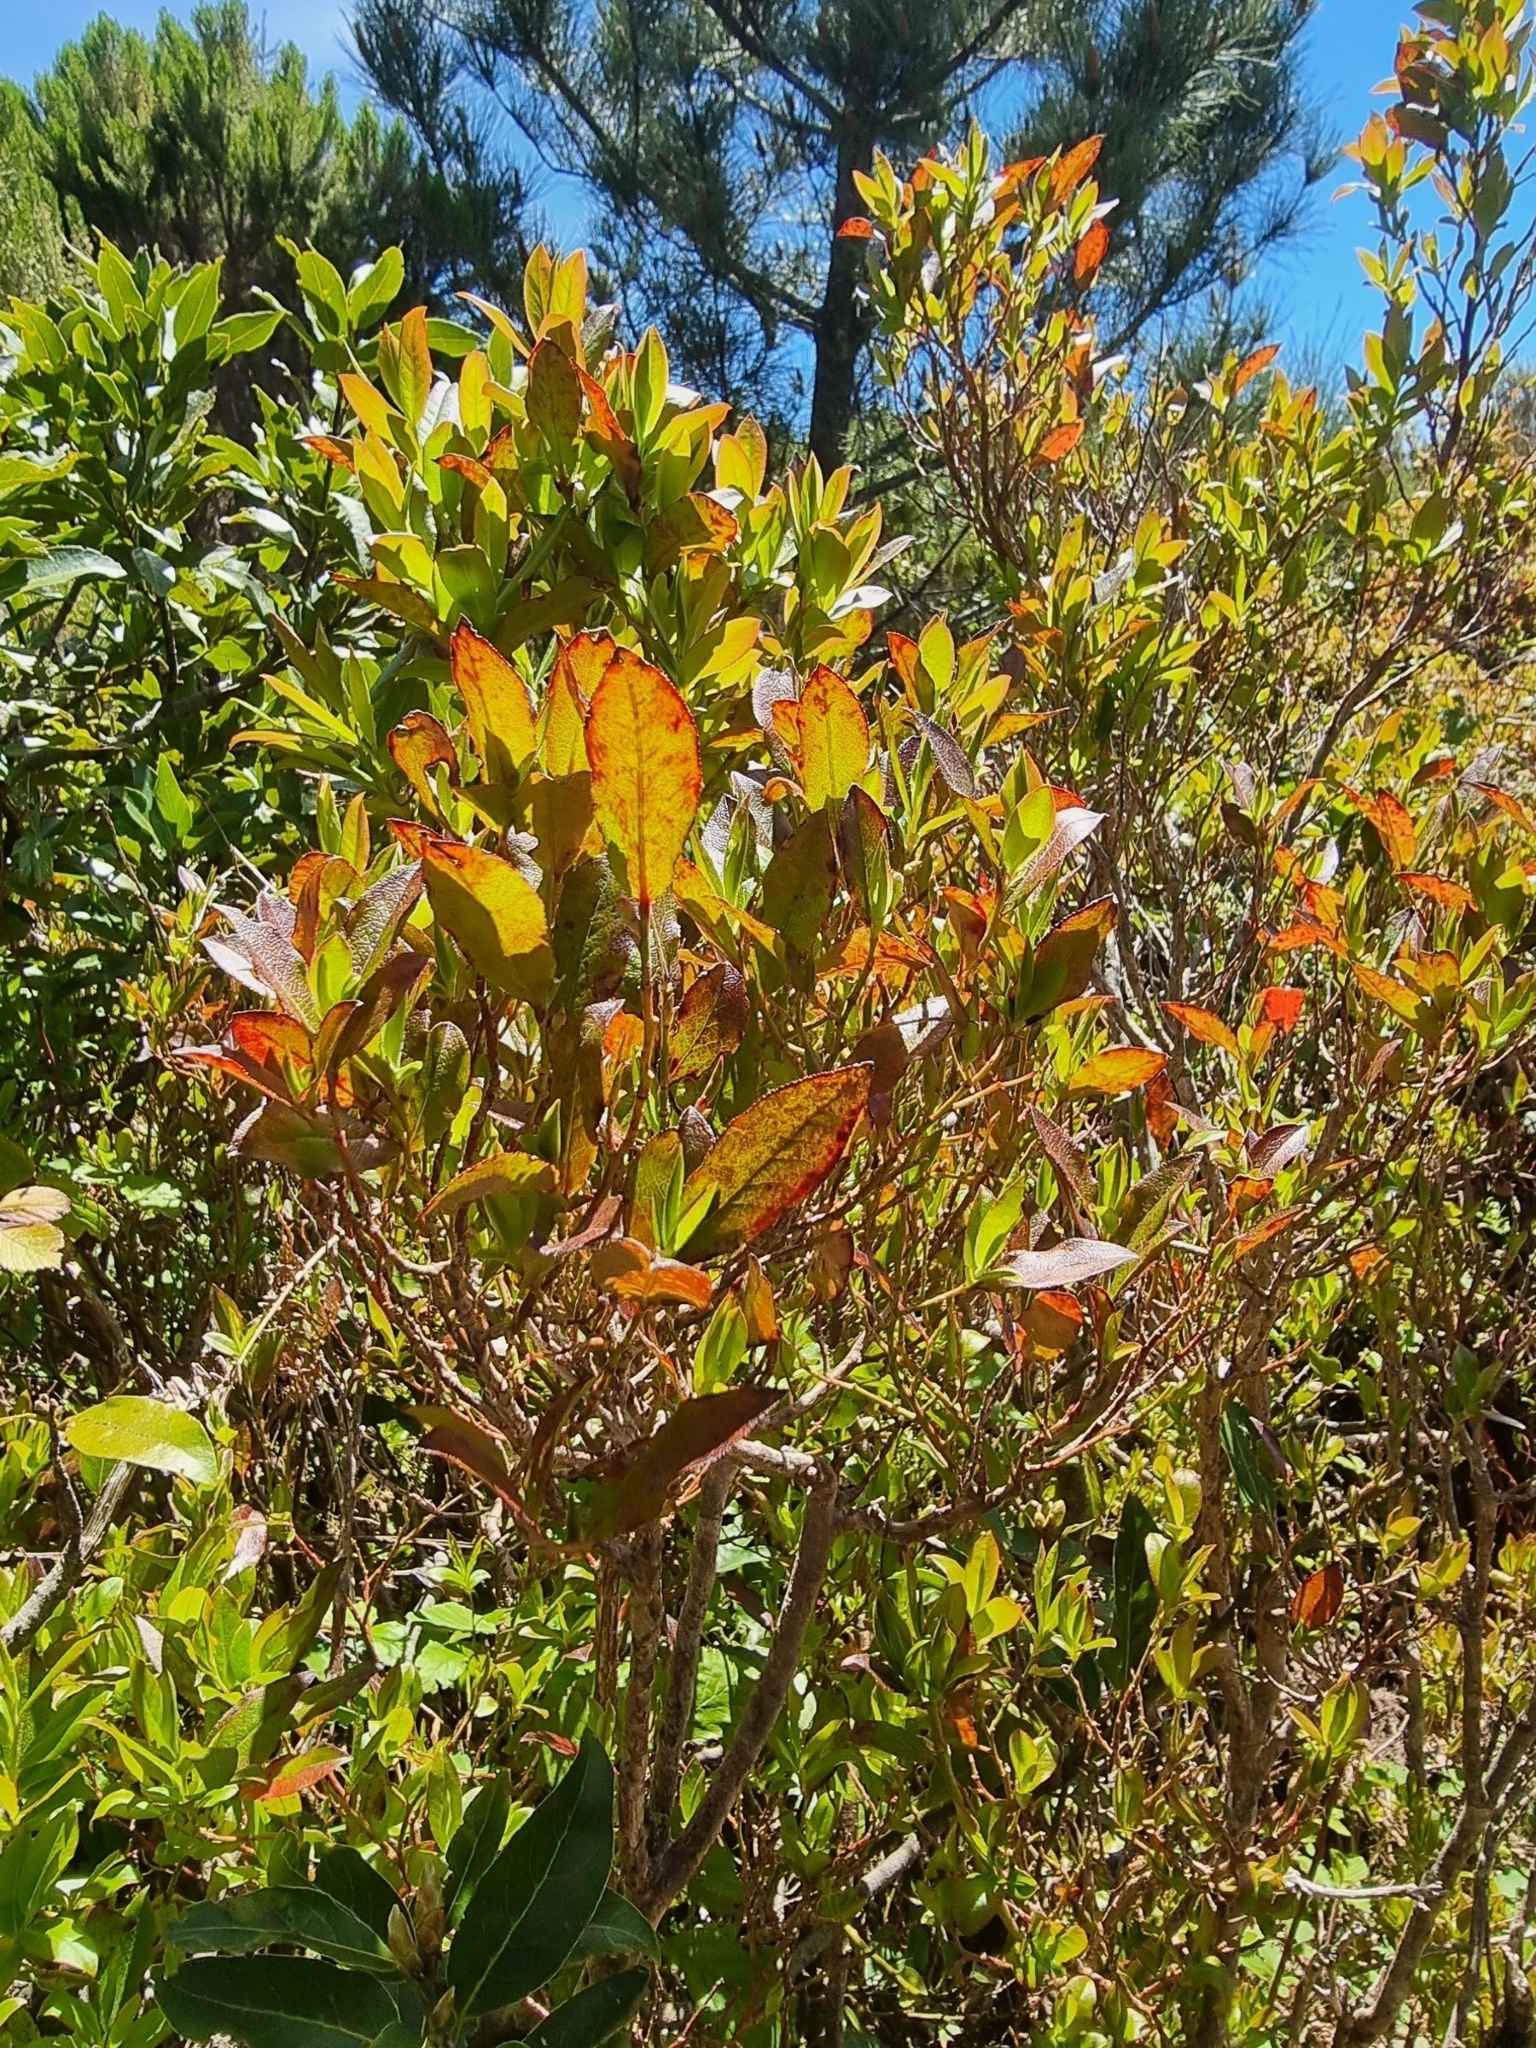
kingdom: Plantae
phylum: Tracheophyta
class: Magnoliopsida
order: Ericales
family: Ericaceae
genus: Vaccinium
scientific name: Vaccinium padifolium
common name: Madeiran blueberry
